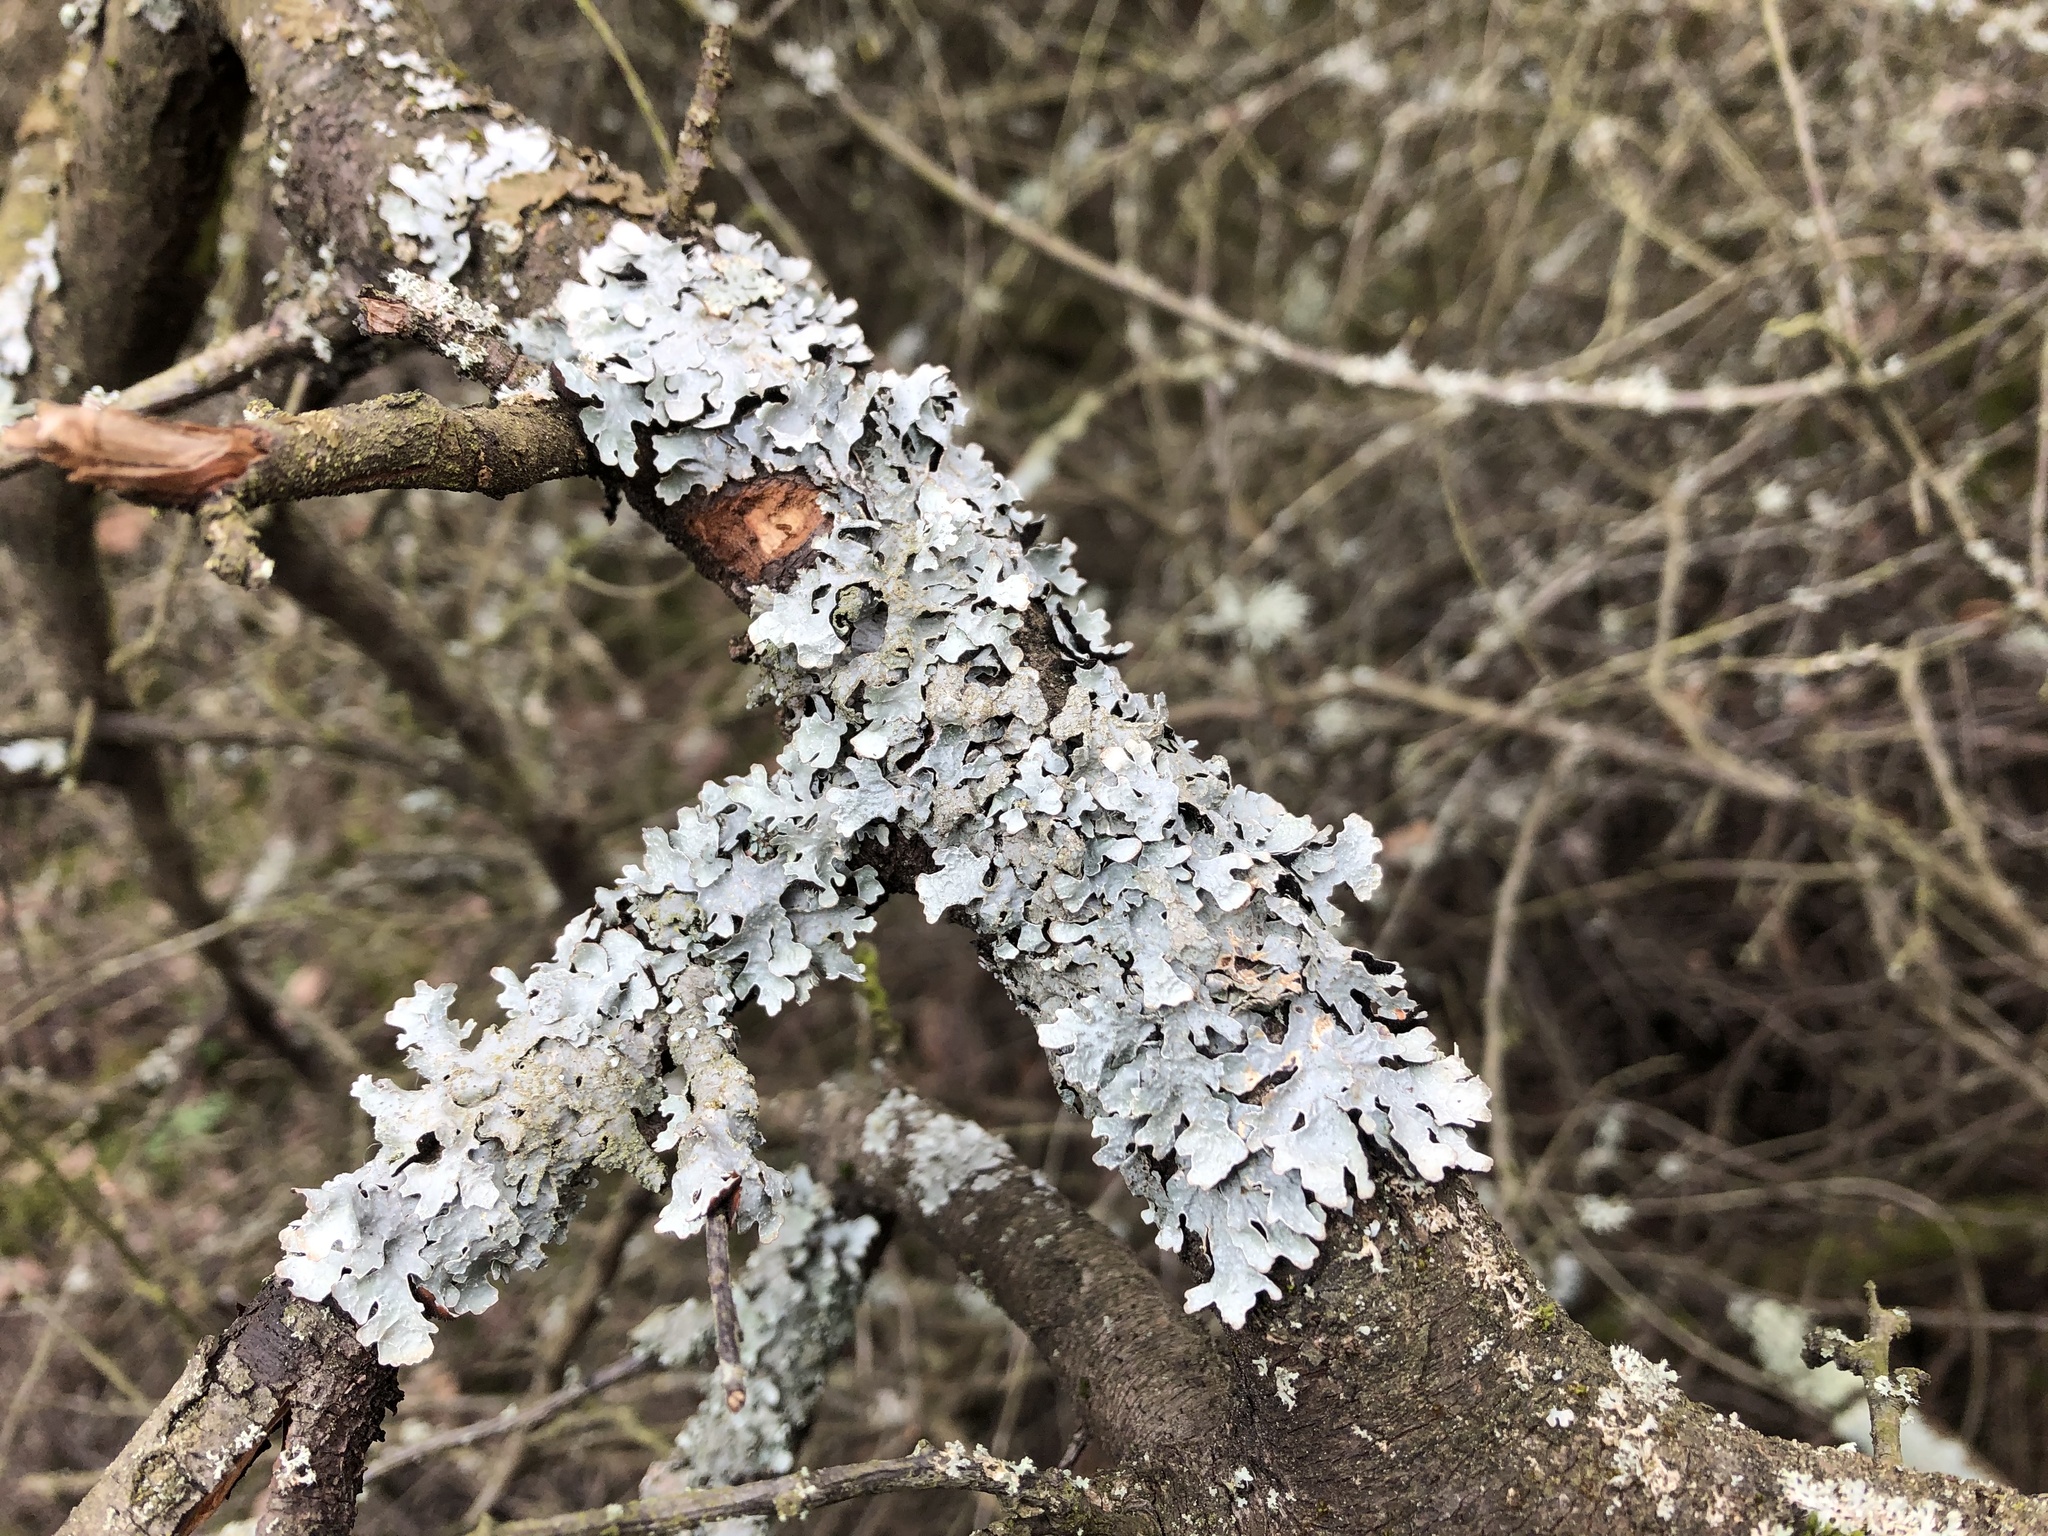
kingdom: Fungi
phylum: Ascomycota
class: Lecanoromycetes
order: Lecanorales
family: Parmeliaceae
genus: Parmelia
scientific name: Parmelia sulcata
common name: Netted shield lichen
